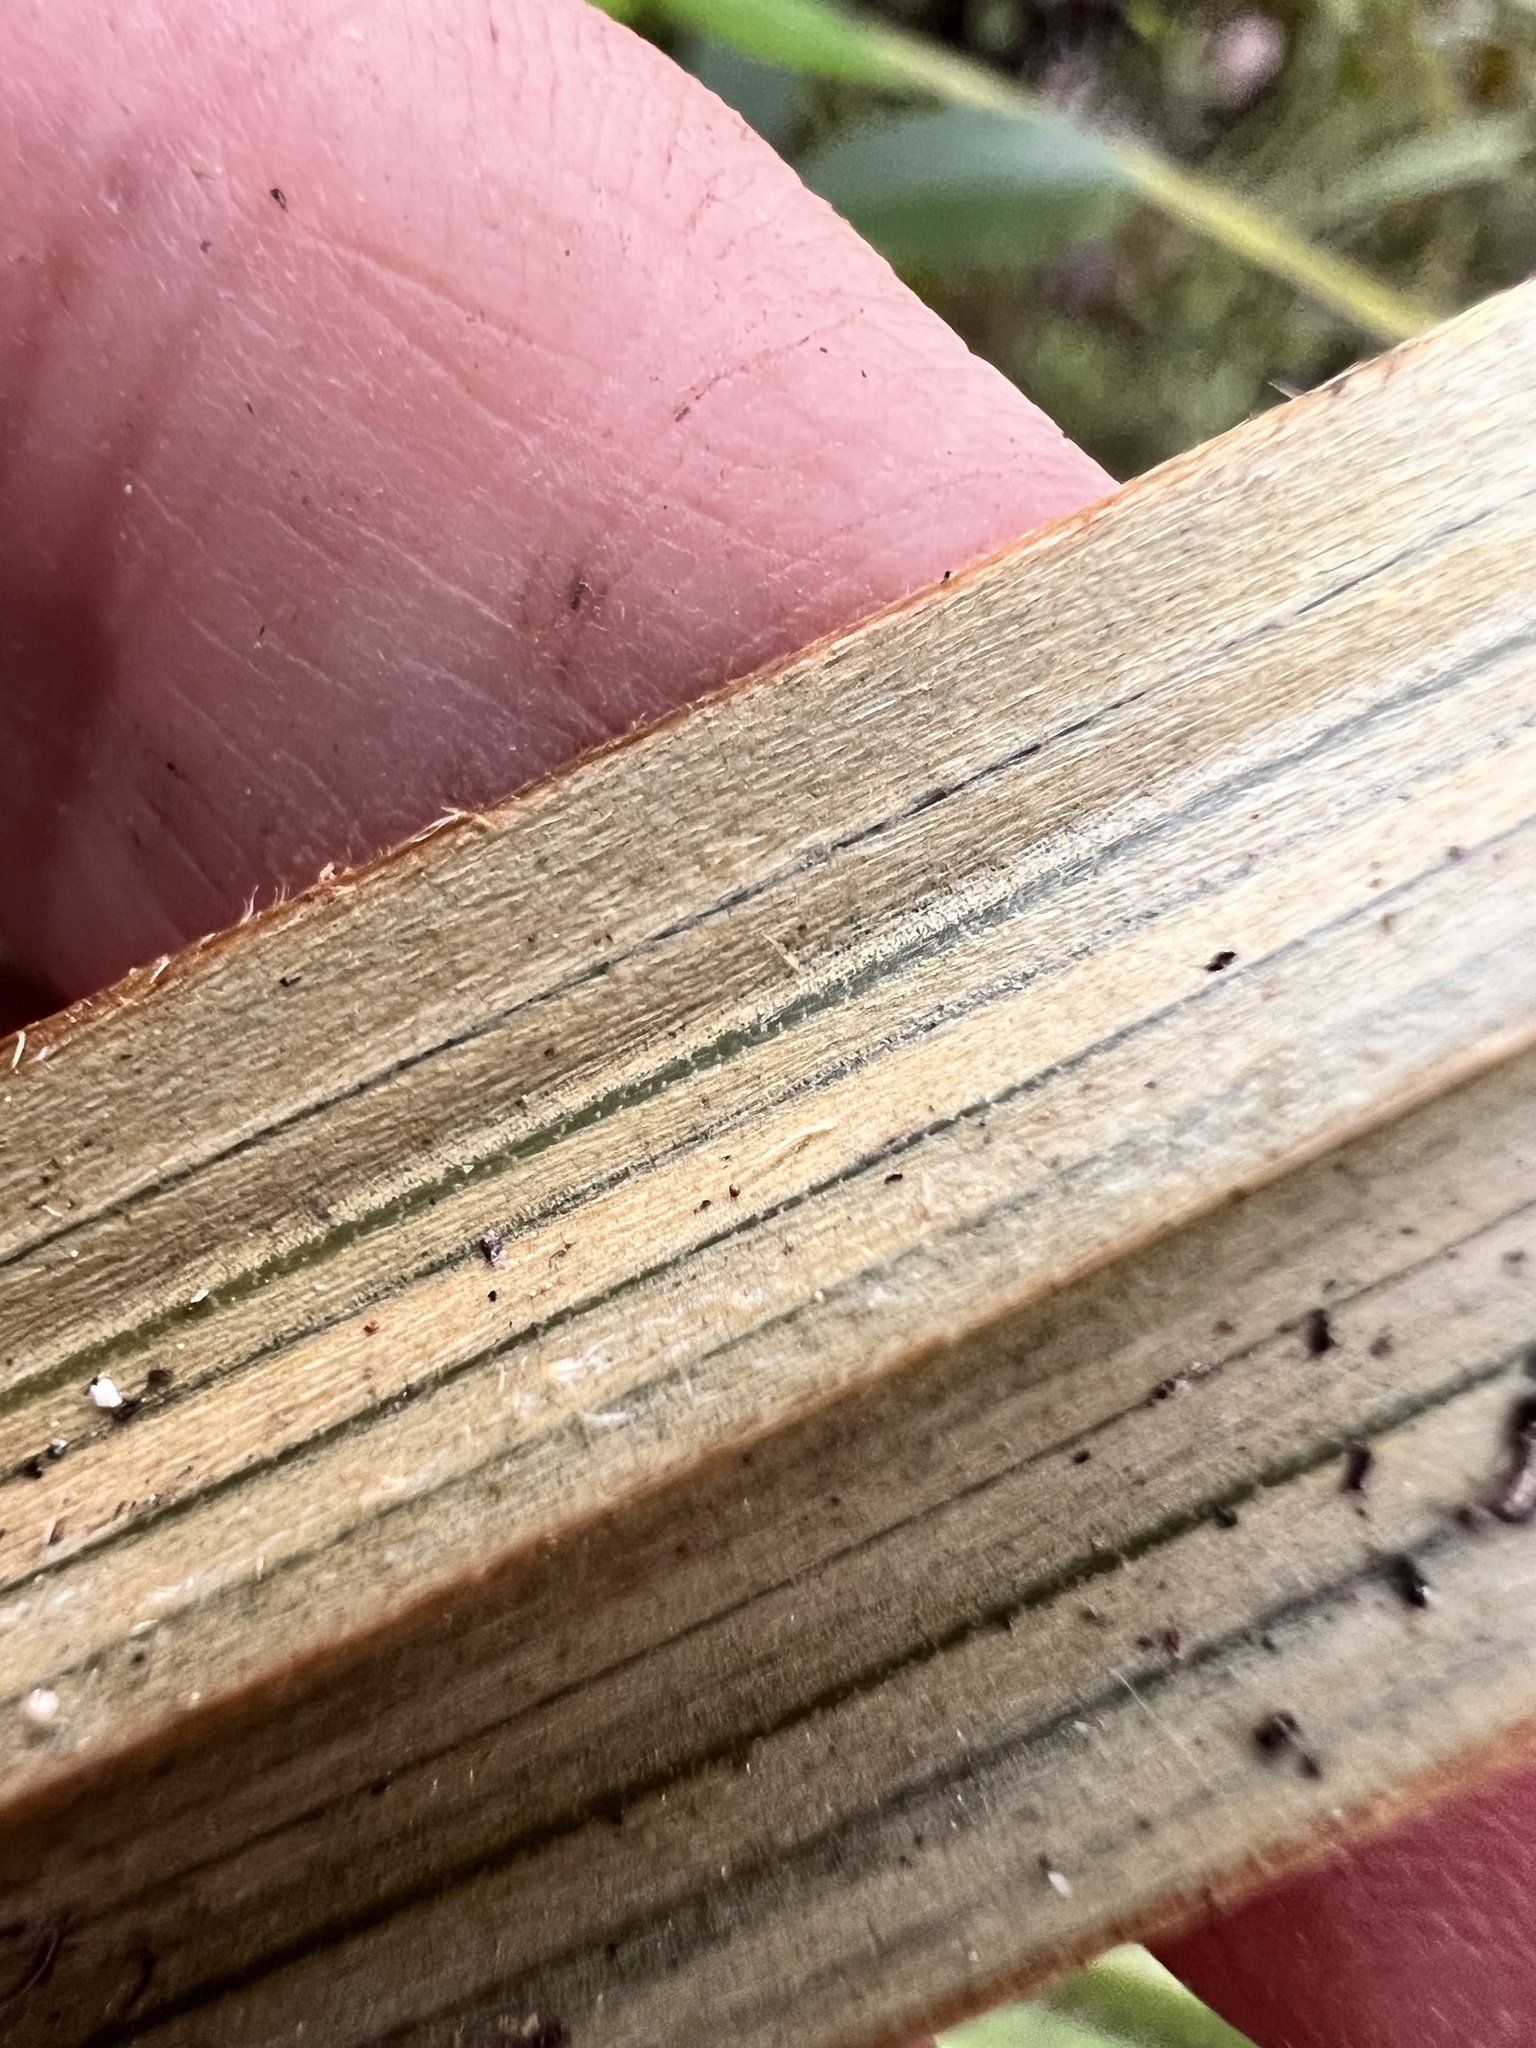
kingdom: Plantae
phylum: Tracheophyta
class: Liliopsida
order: Asparagales
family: Asteliaceae
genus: Astelia
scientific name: Astelia nervosa
